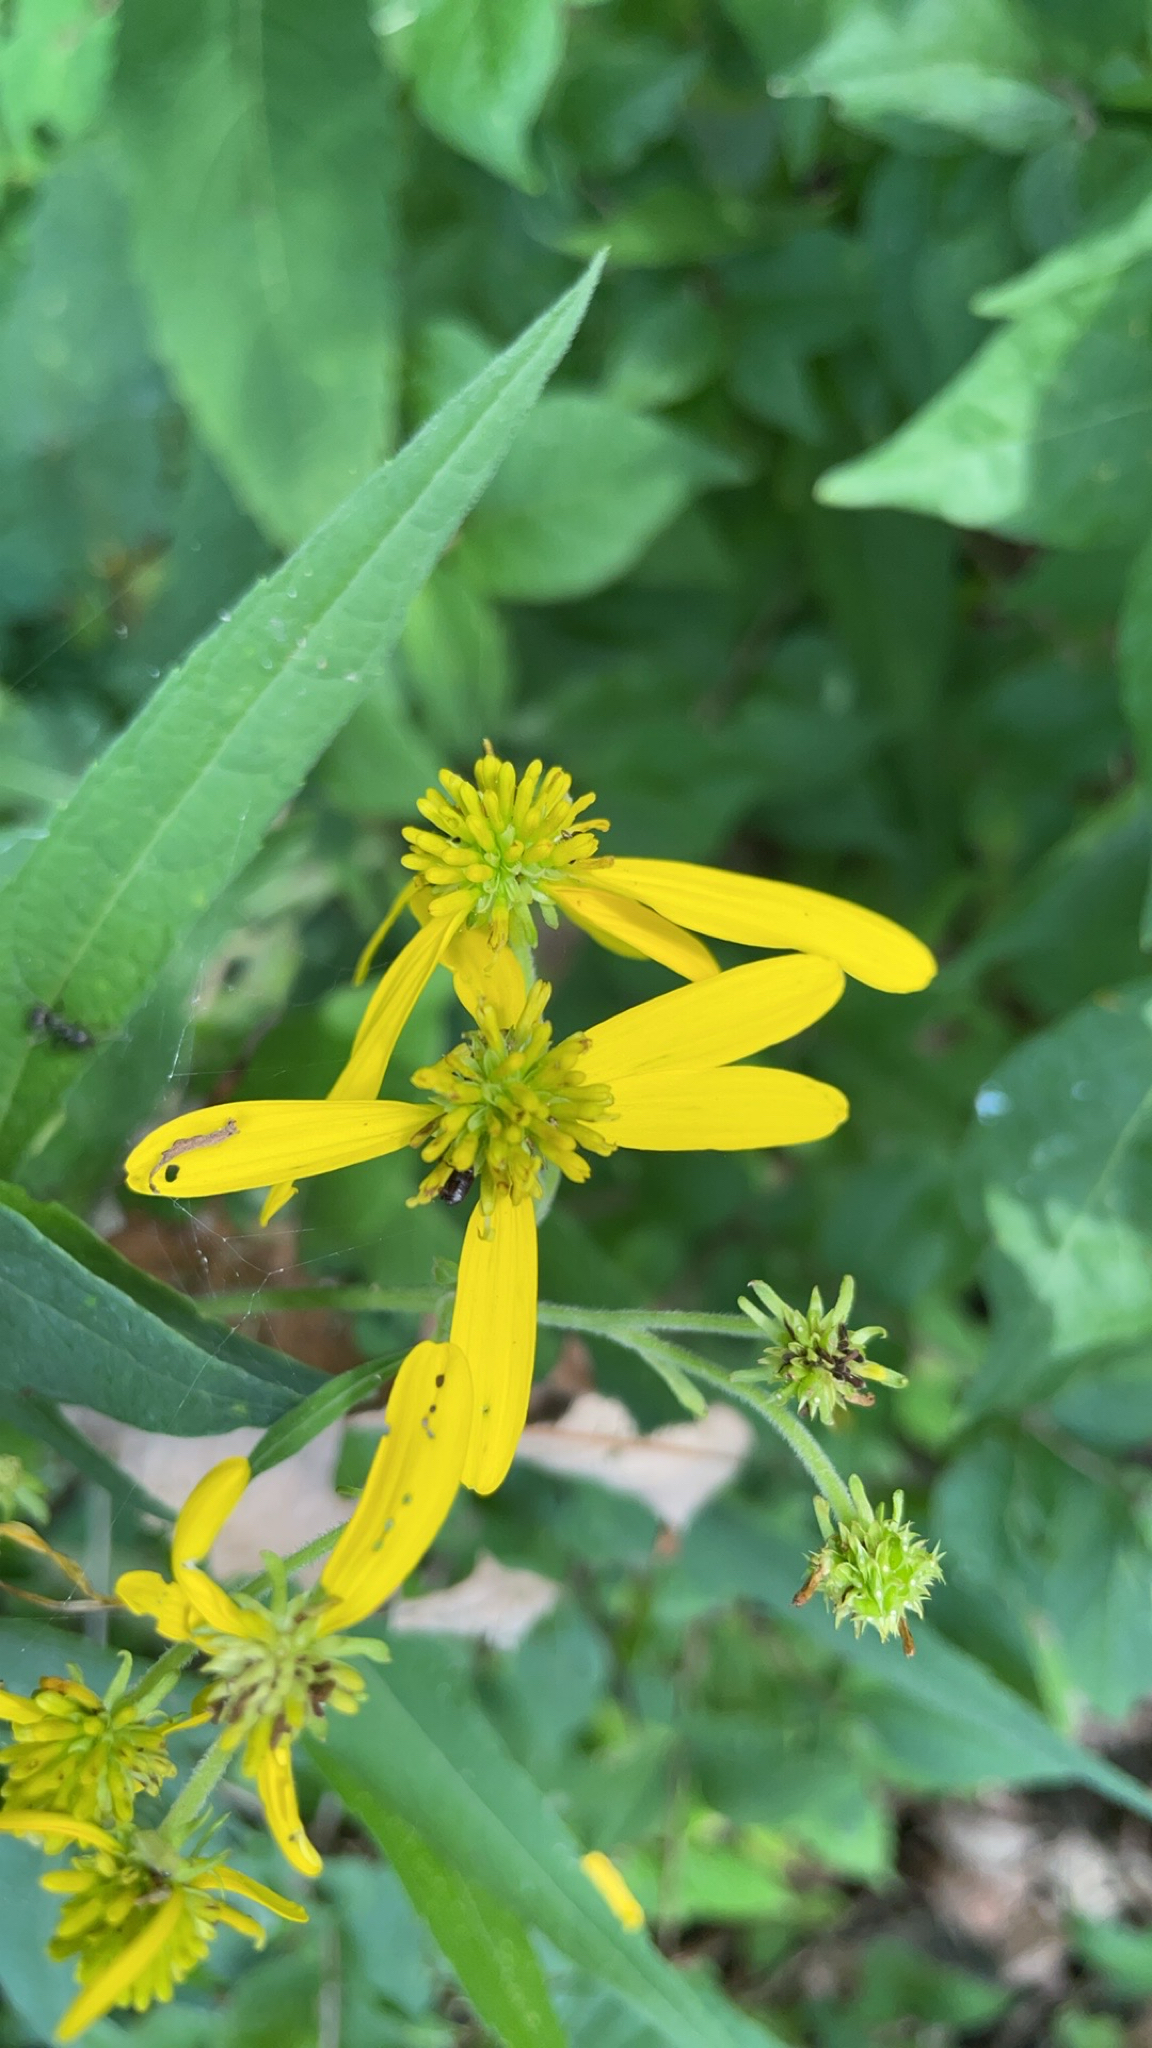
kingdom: Plantae
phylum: Tracheophyta
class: Magnoliopsida
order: Asterales
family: Asteraceae
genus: Verbesina
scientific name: Verbesina alternifolia
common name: Wingstem
